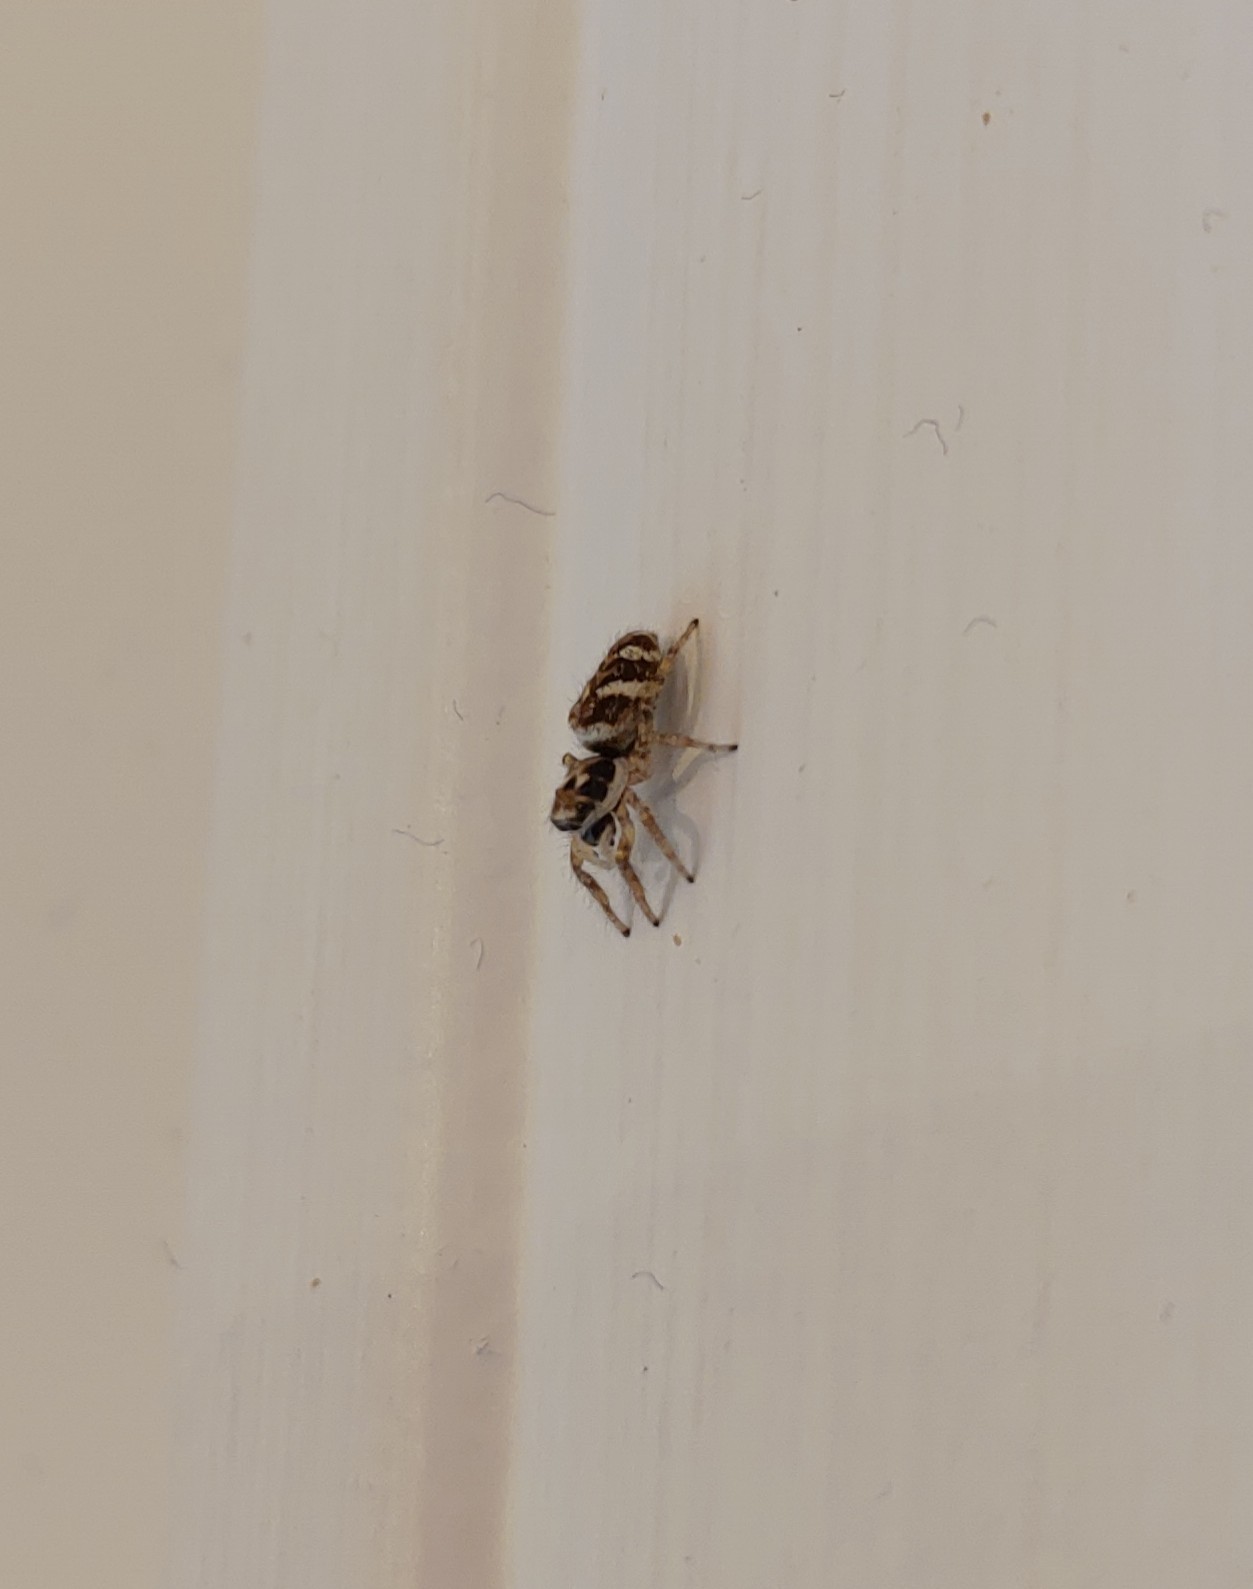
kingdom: Animalia
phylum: Arthropoda
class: Arachnida
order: Araneae
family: Salticidae
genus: Salticus
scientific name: Salticus scenicus
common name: Zebra jumper
